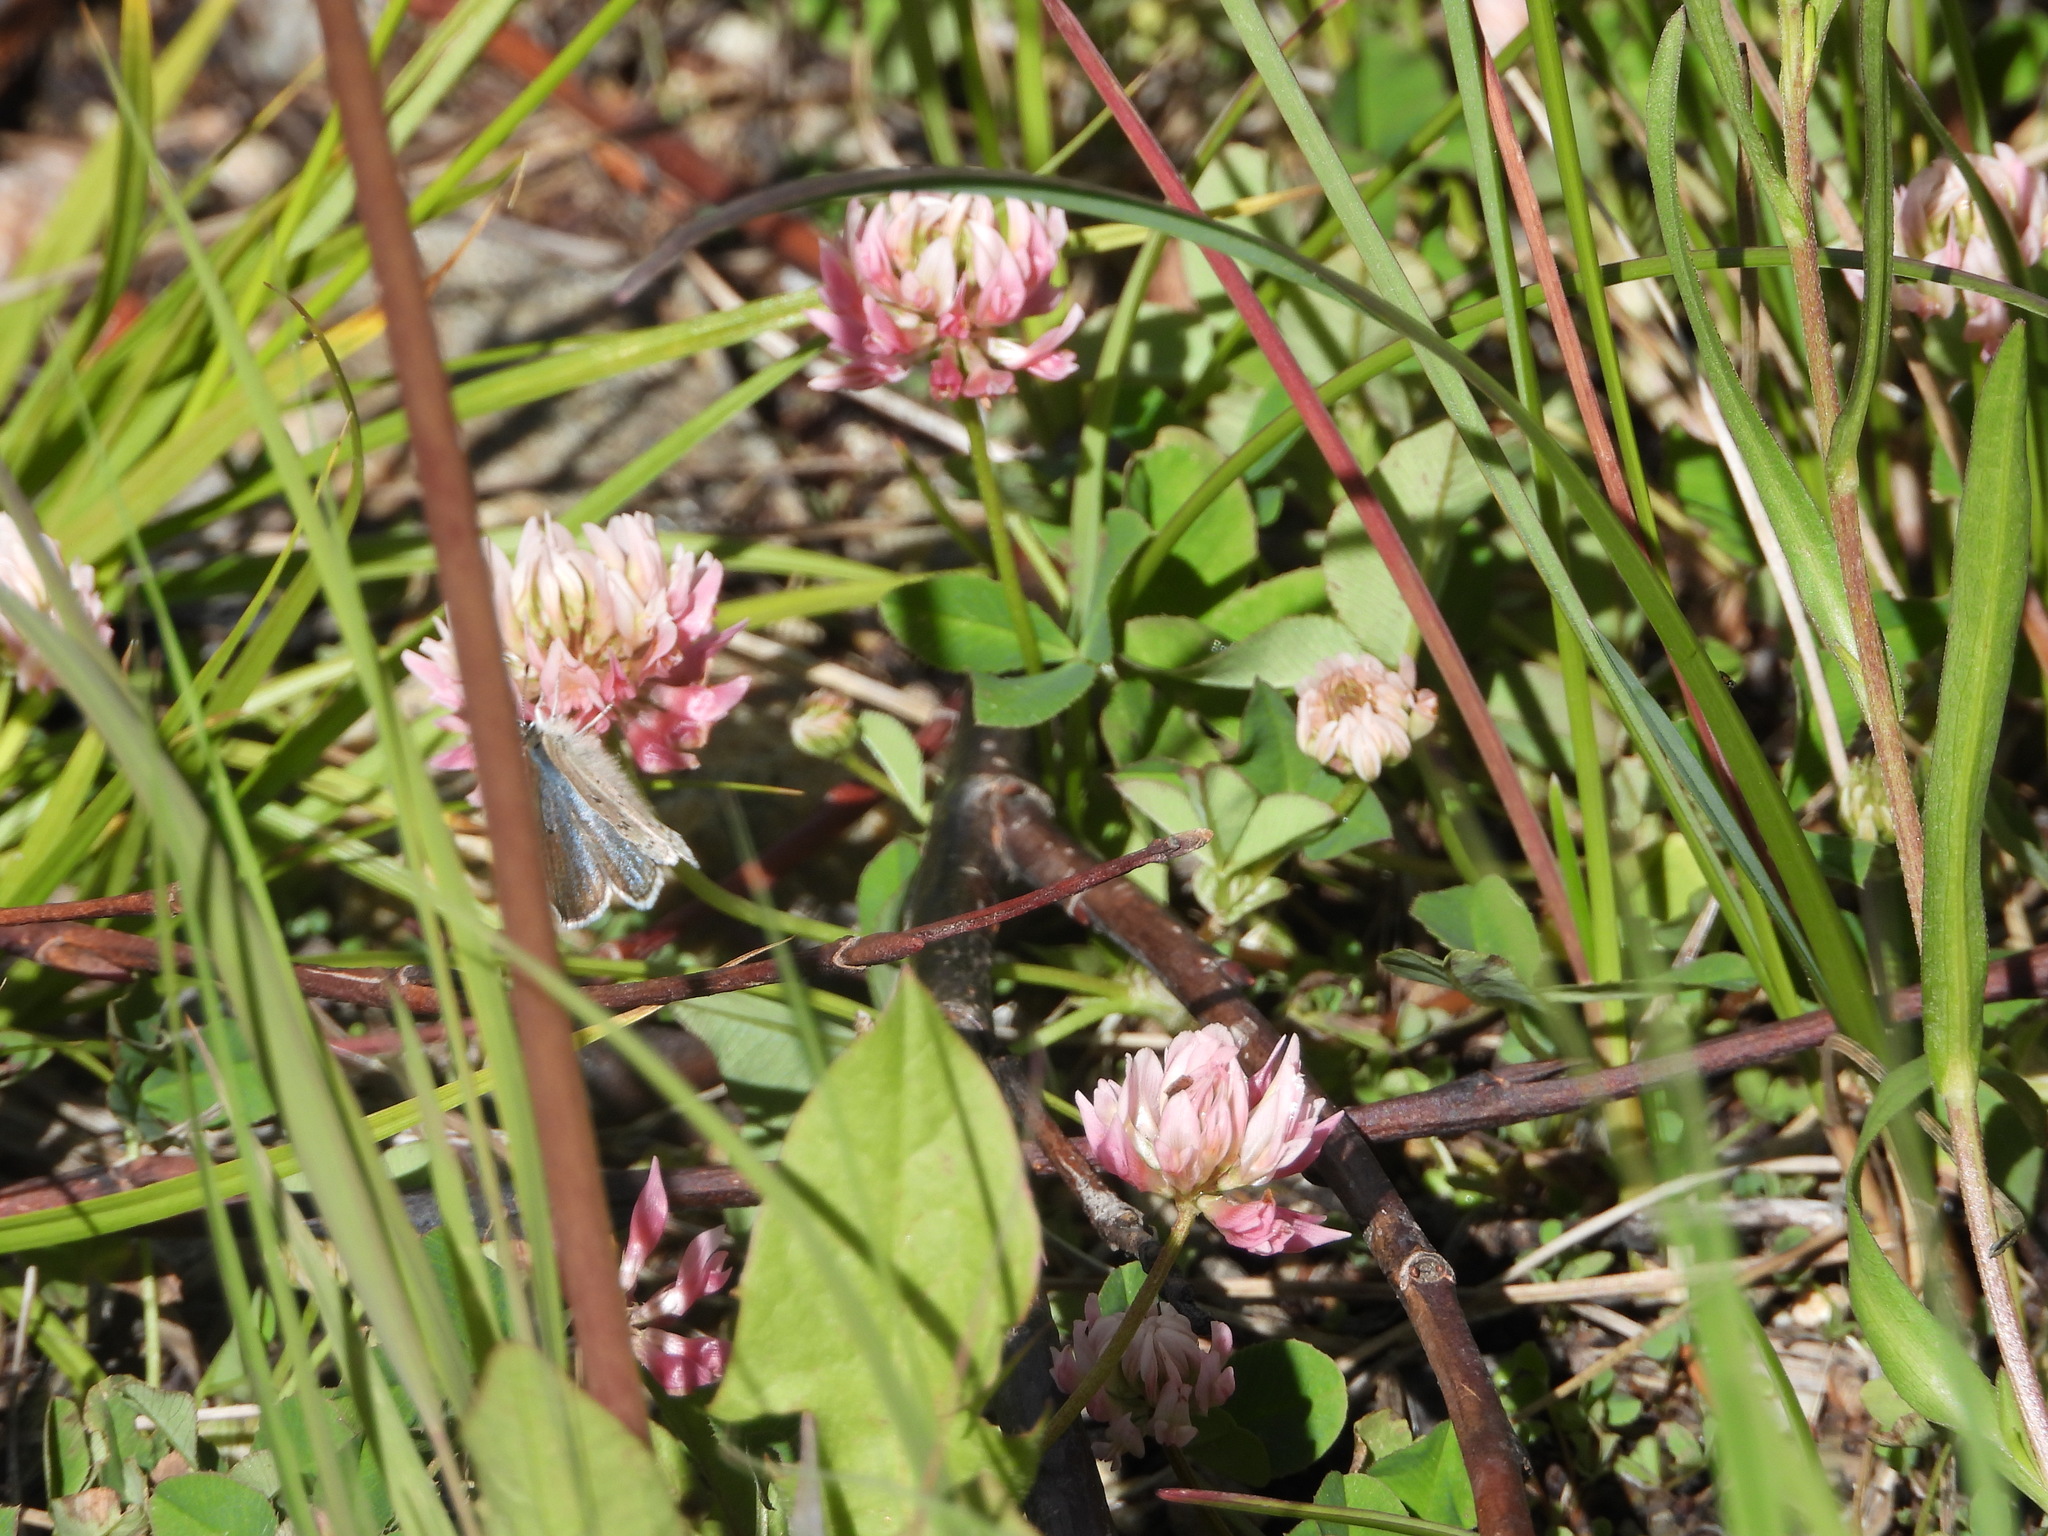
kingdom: Animalia
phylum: Arthropoda
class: Insecta
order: Lepidoptera
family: Lycaenidae
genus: Icaricia
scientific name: Icaricia saepiolus
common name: Greenish blue
